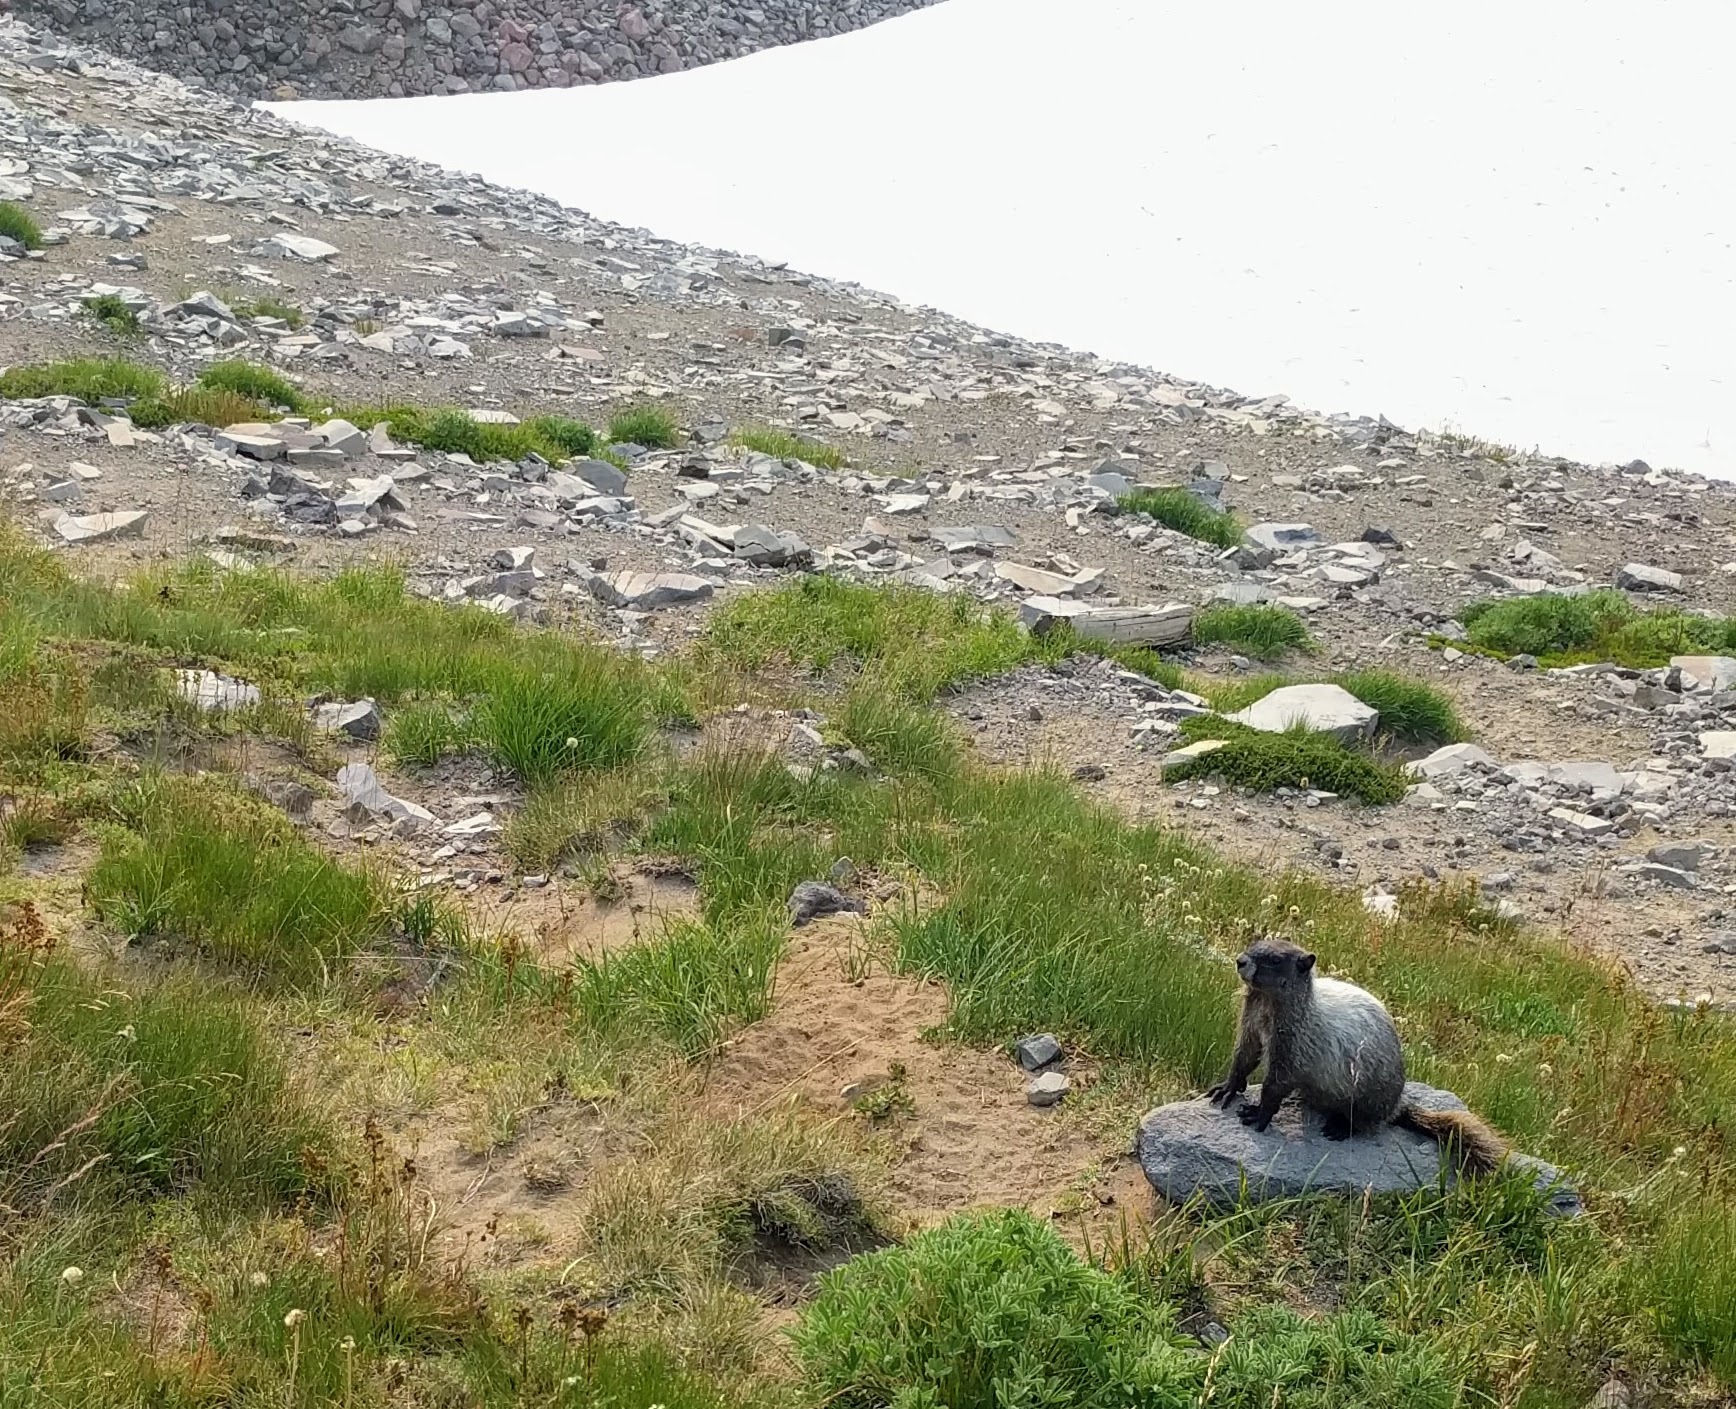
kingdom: Animalia
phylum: Chordata
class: Mammalia
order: Rodentia
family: Sciuridae
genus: Marmota
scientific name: Marmota caligata
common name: Hoary marmot
